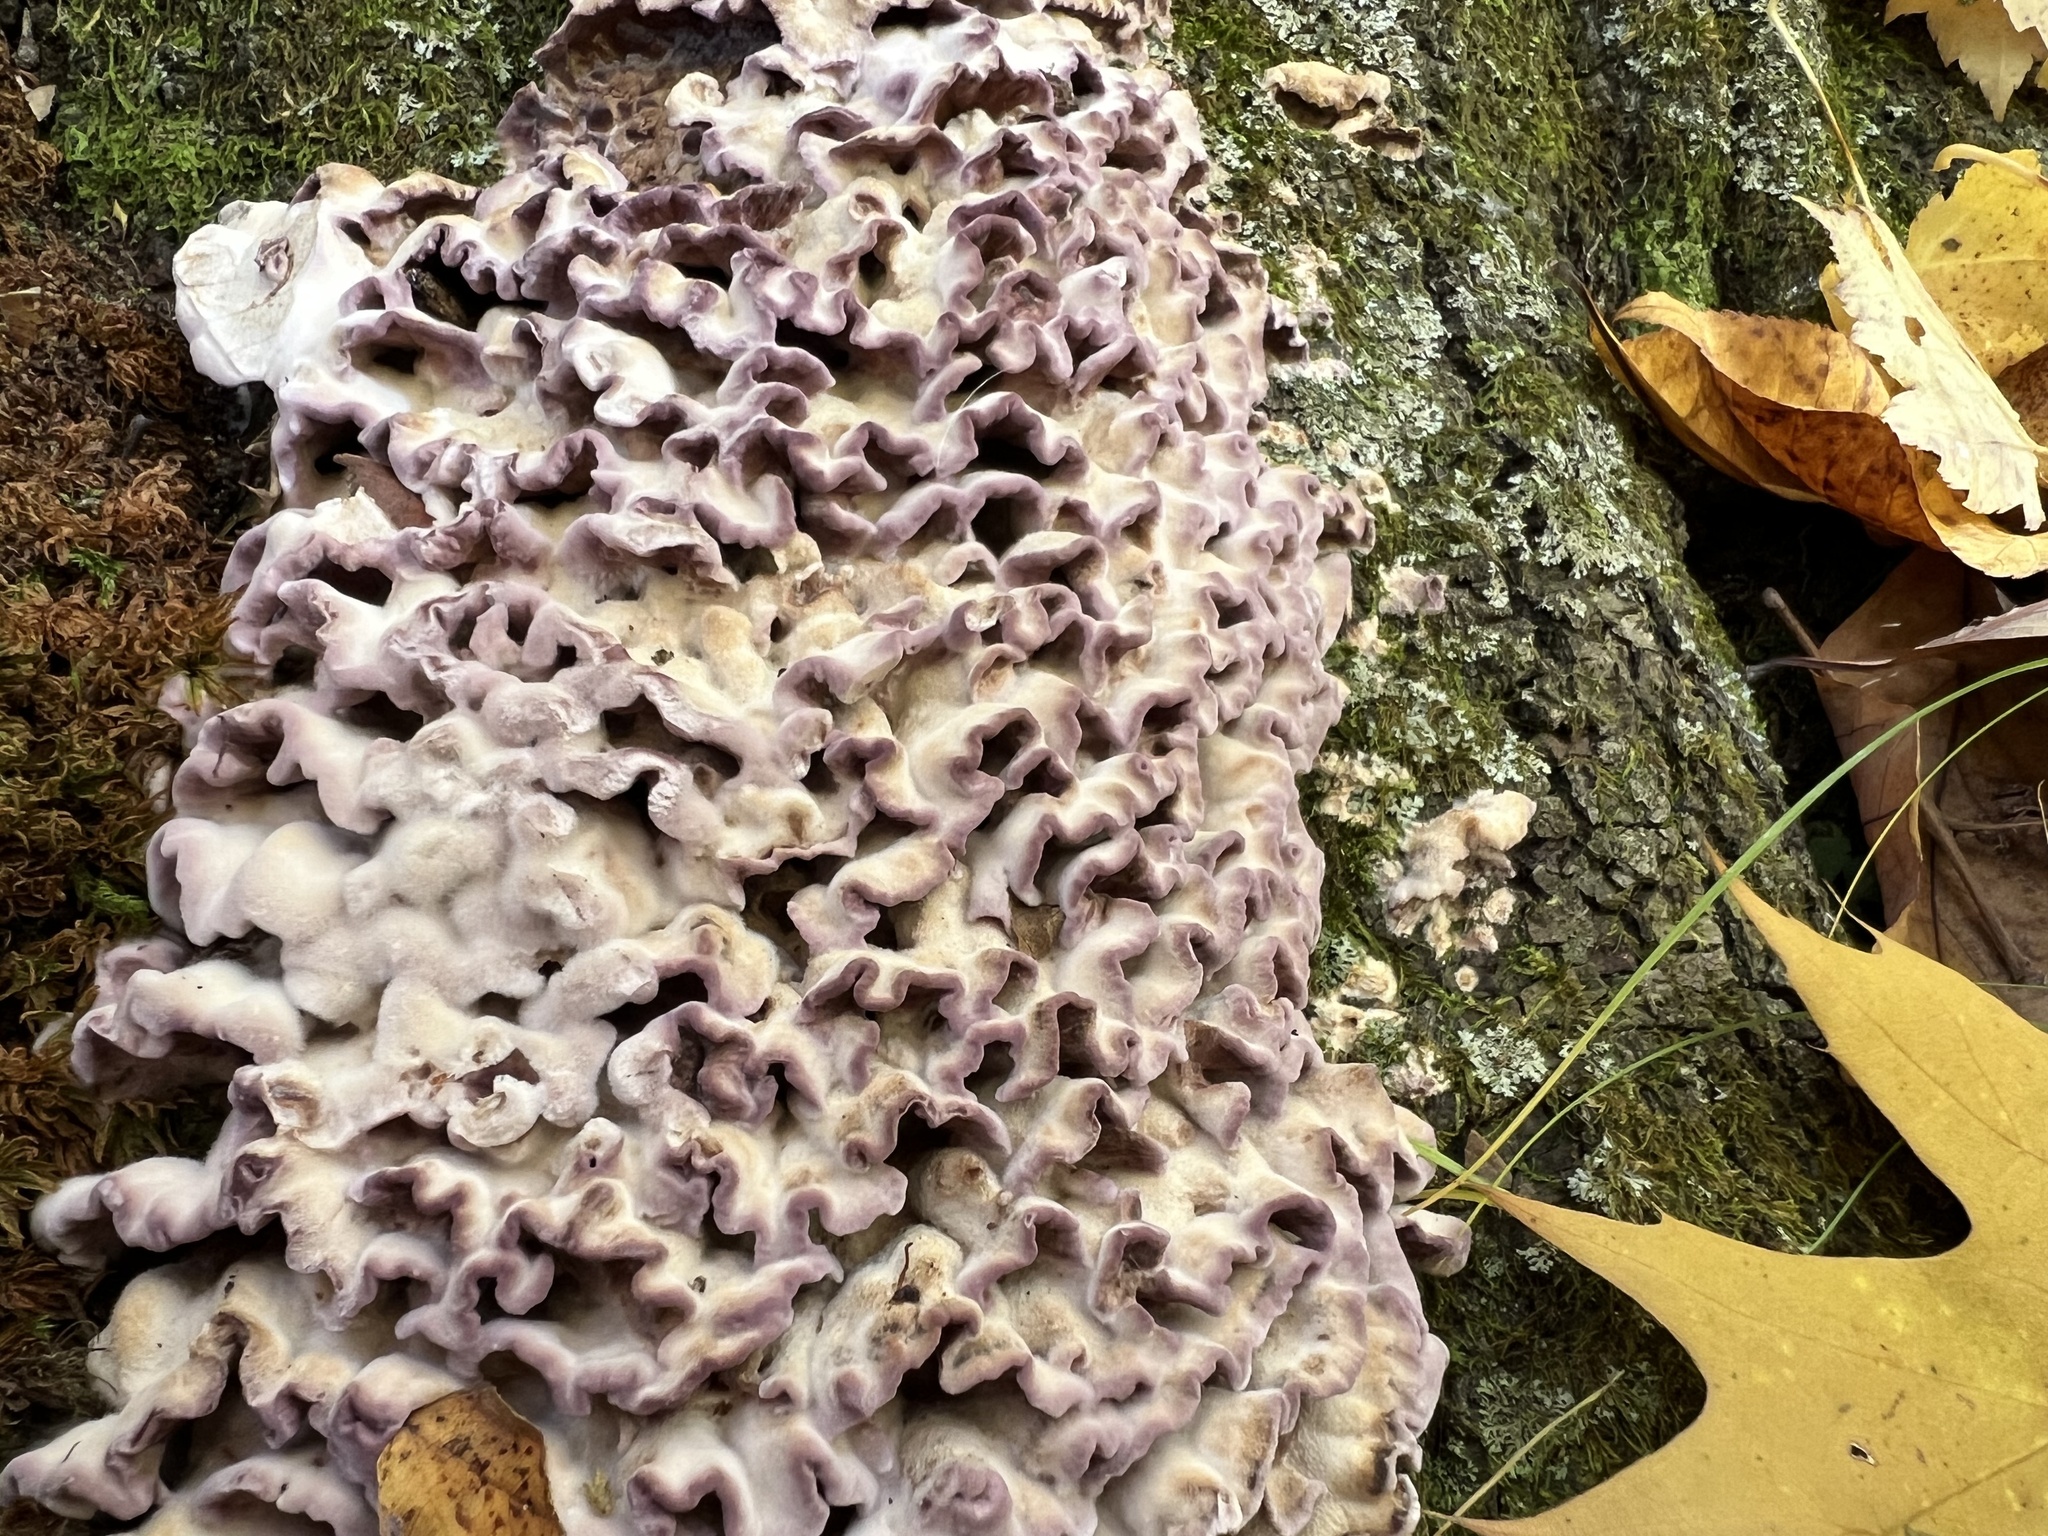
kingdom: Fungi
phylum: Basidiomycota
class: Agaricomycetes
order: Agaricales
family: Cyphellaceae
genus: Chondrostereum
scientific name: Chondrostereum purpureum
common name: Silver leaf disease
